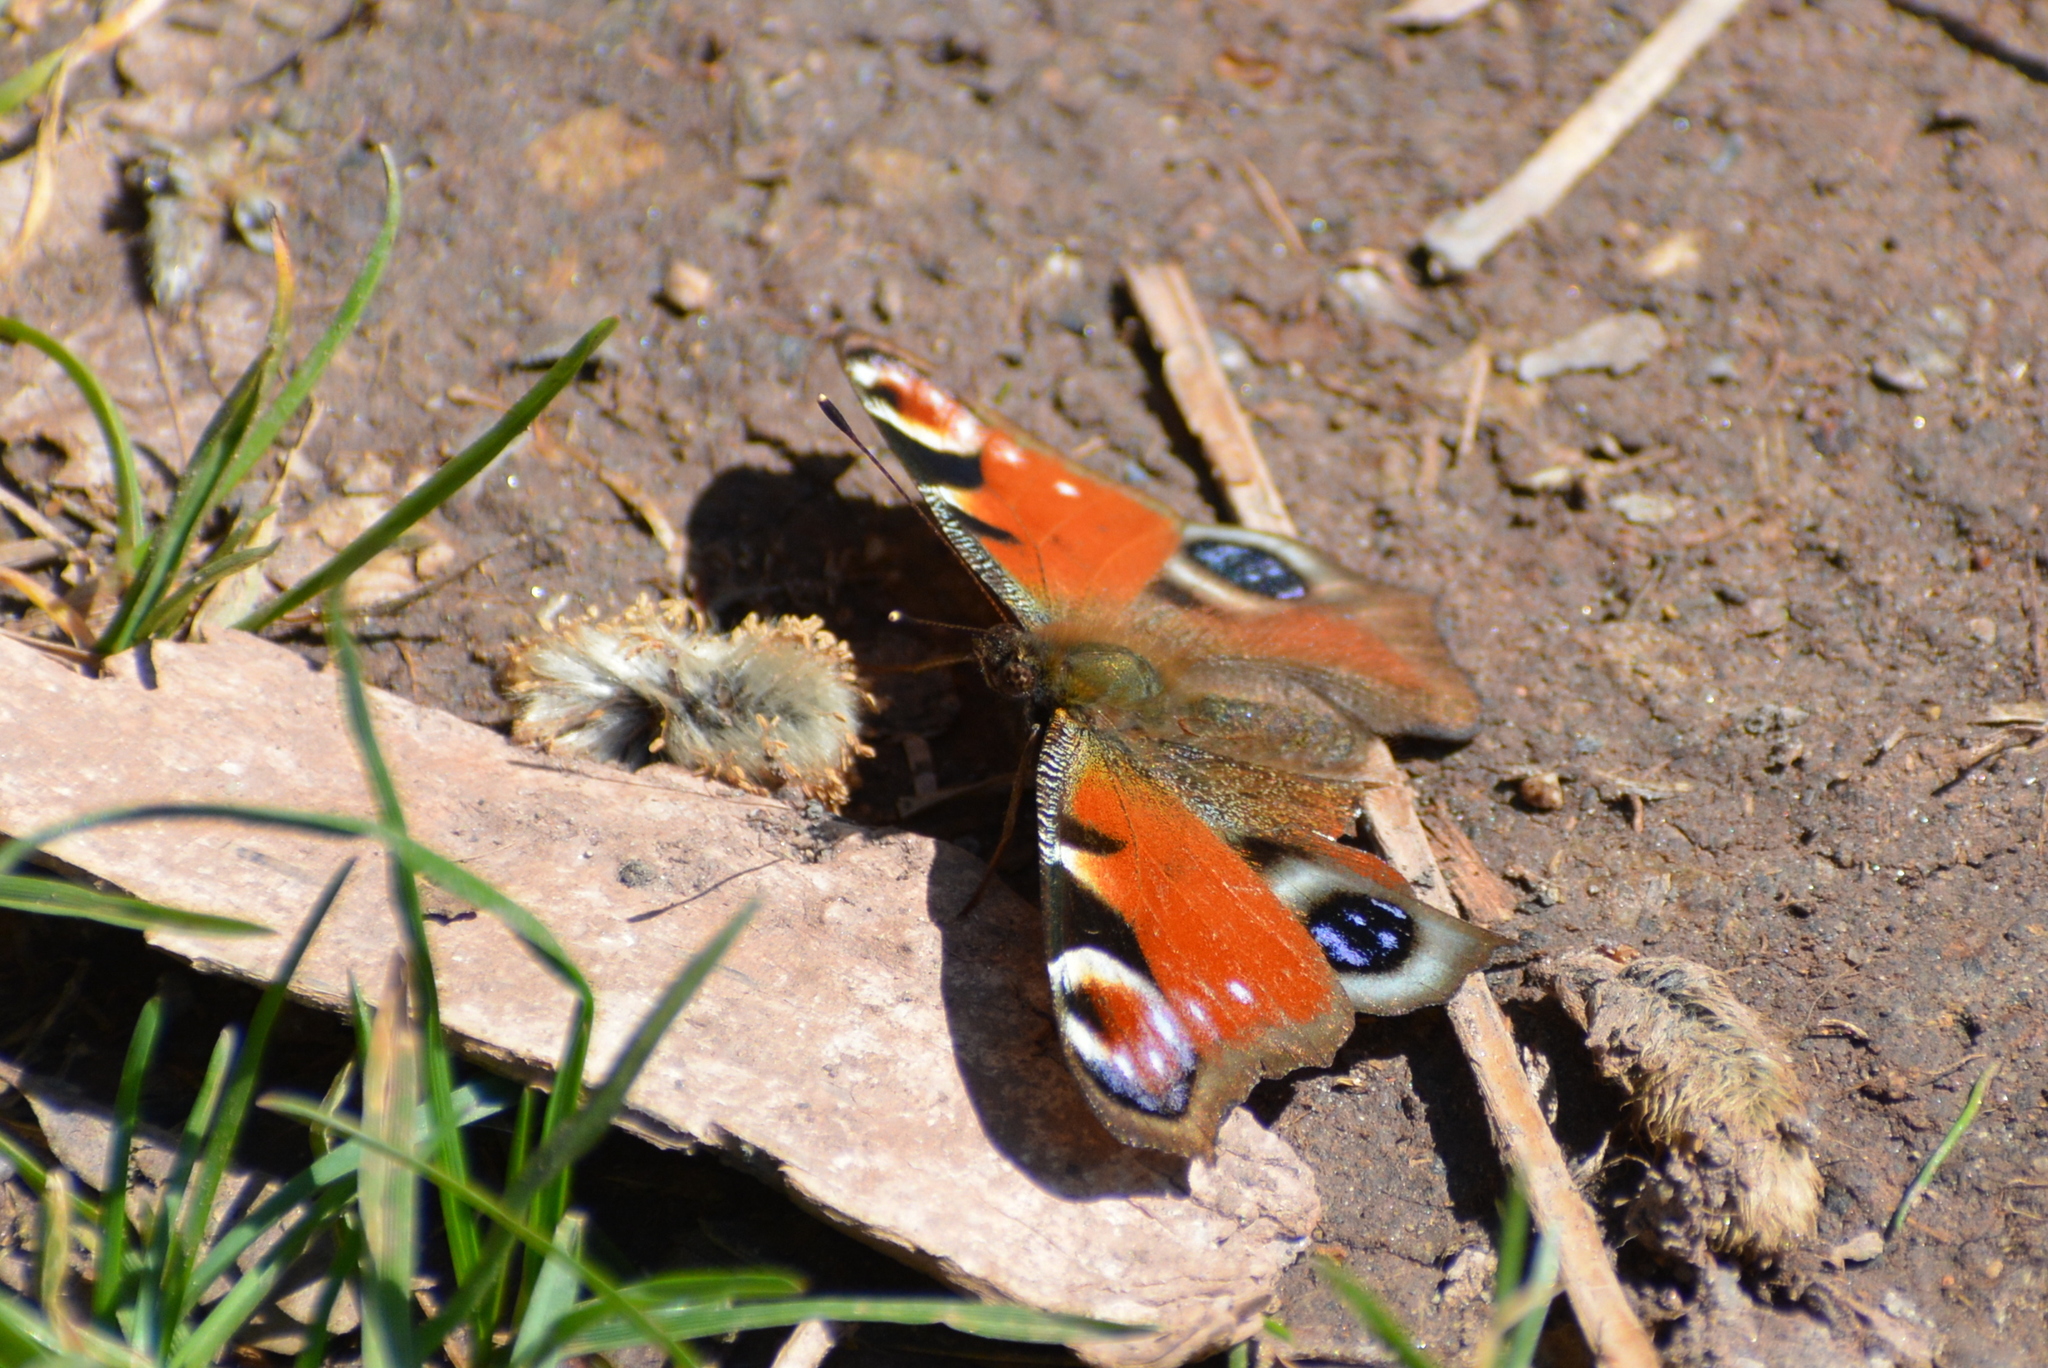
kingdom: Animalia
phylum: Arthropoda
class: Insecta
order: Lepidoptera
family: Nymphalidae
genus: Aglais
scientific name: Aglais io
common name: Peacock
